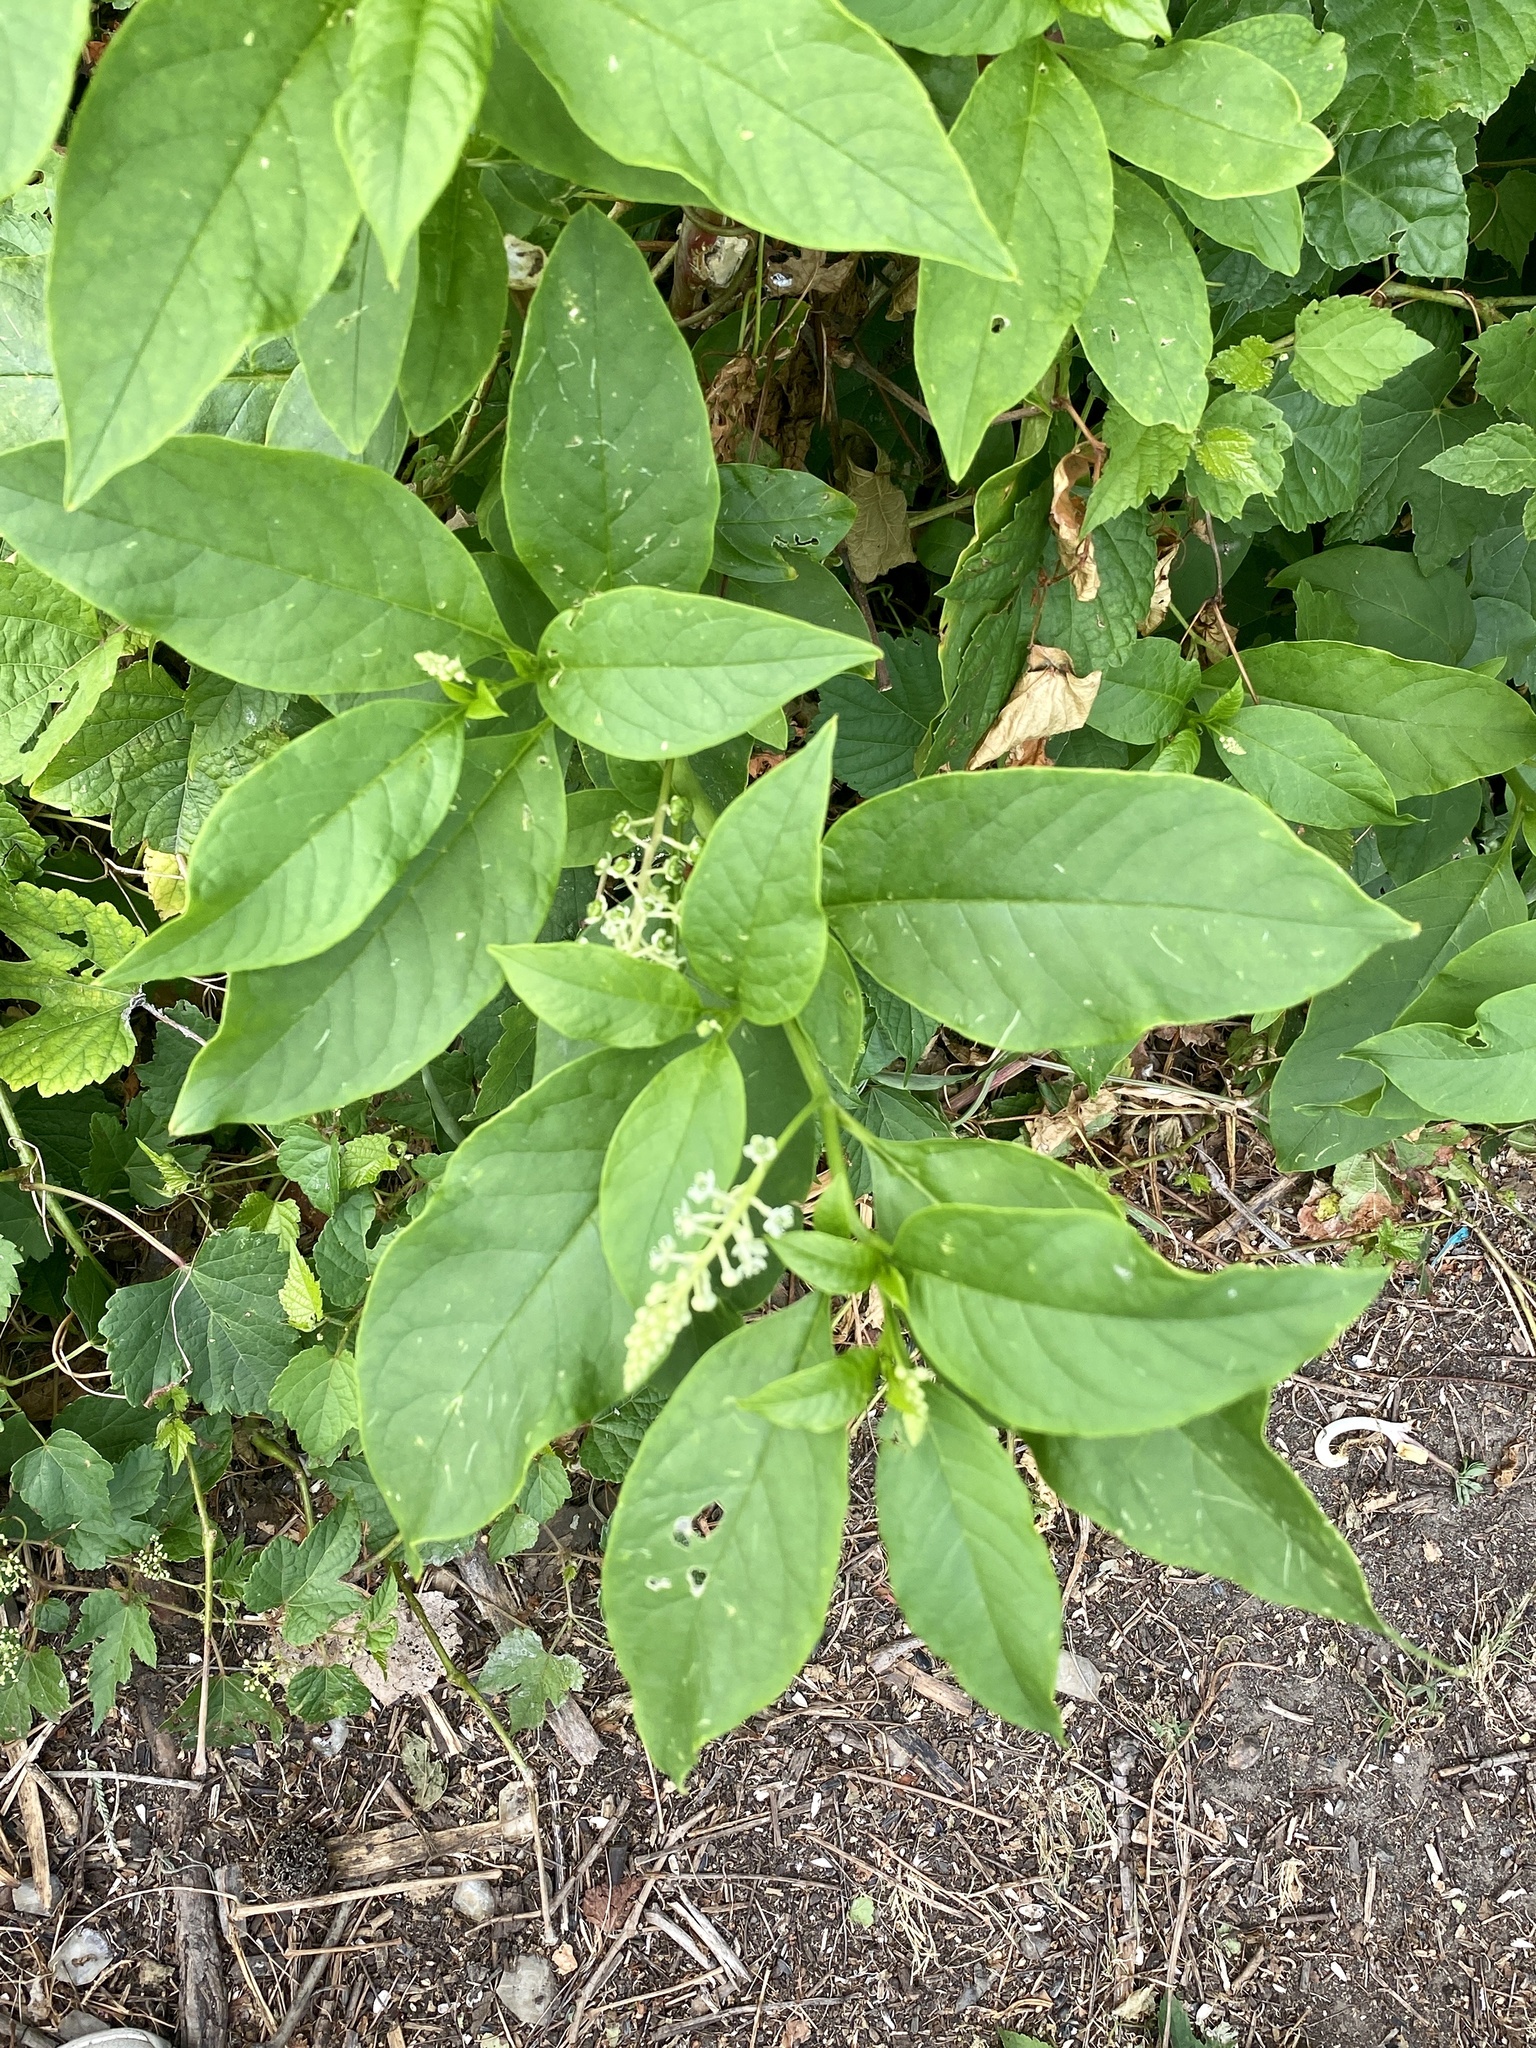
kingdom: Plantae
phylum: Tracheophyta
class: Magnoliopsida
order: Caryophyllales
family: Phytolaccaceae
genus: Phytolacca
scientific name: Phytolacca americana
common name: American pokeweed
